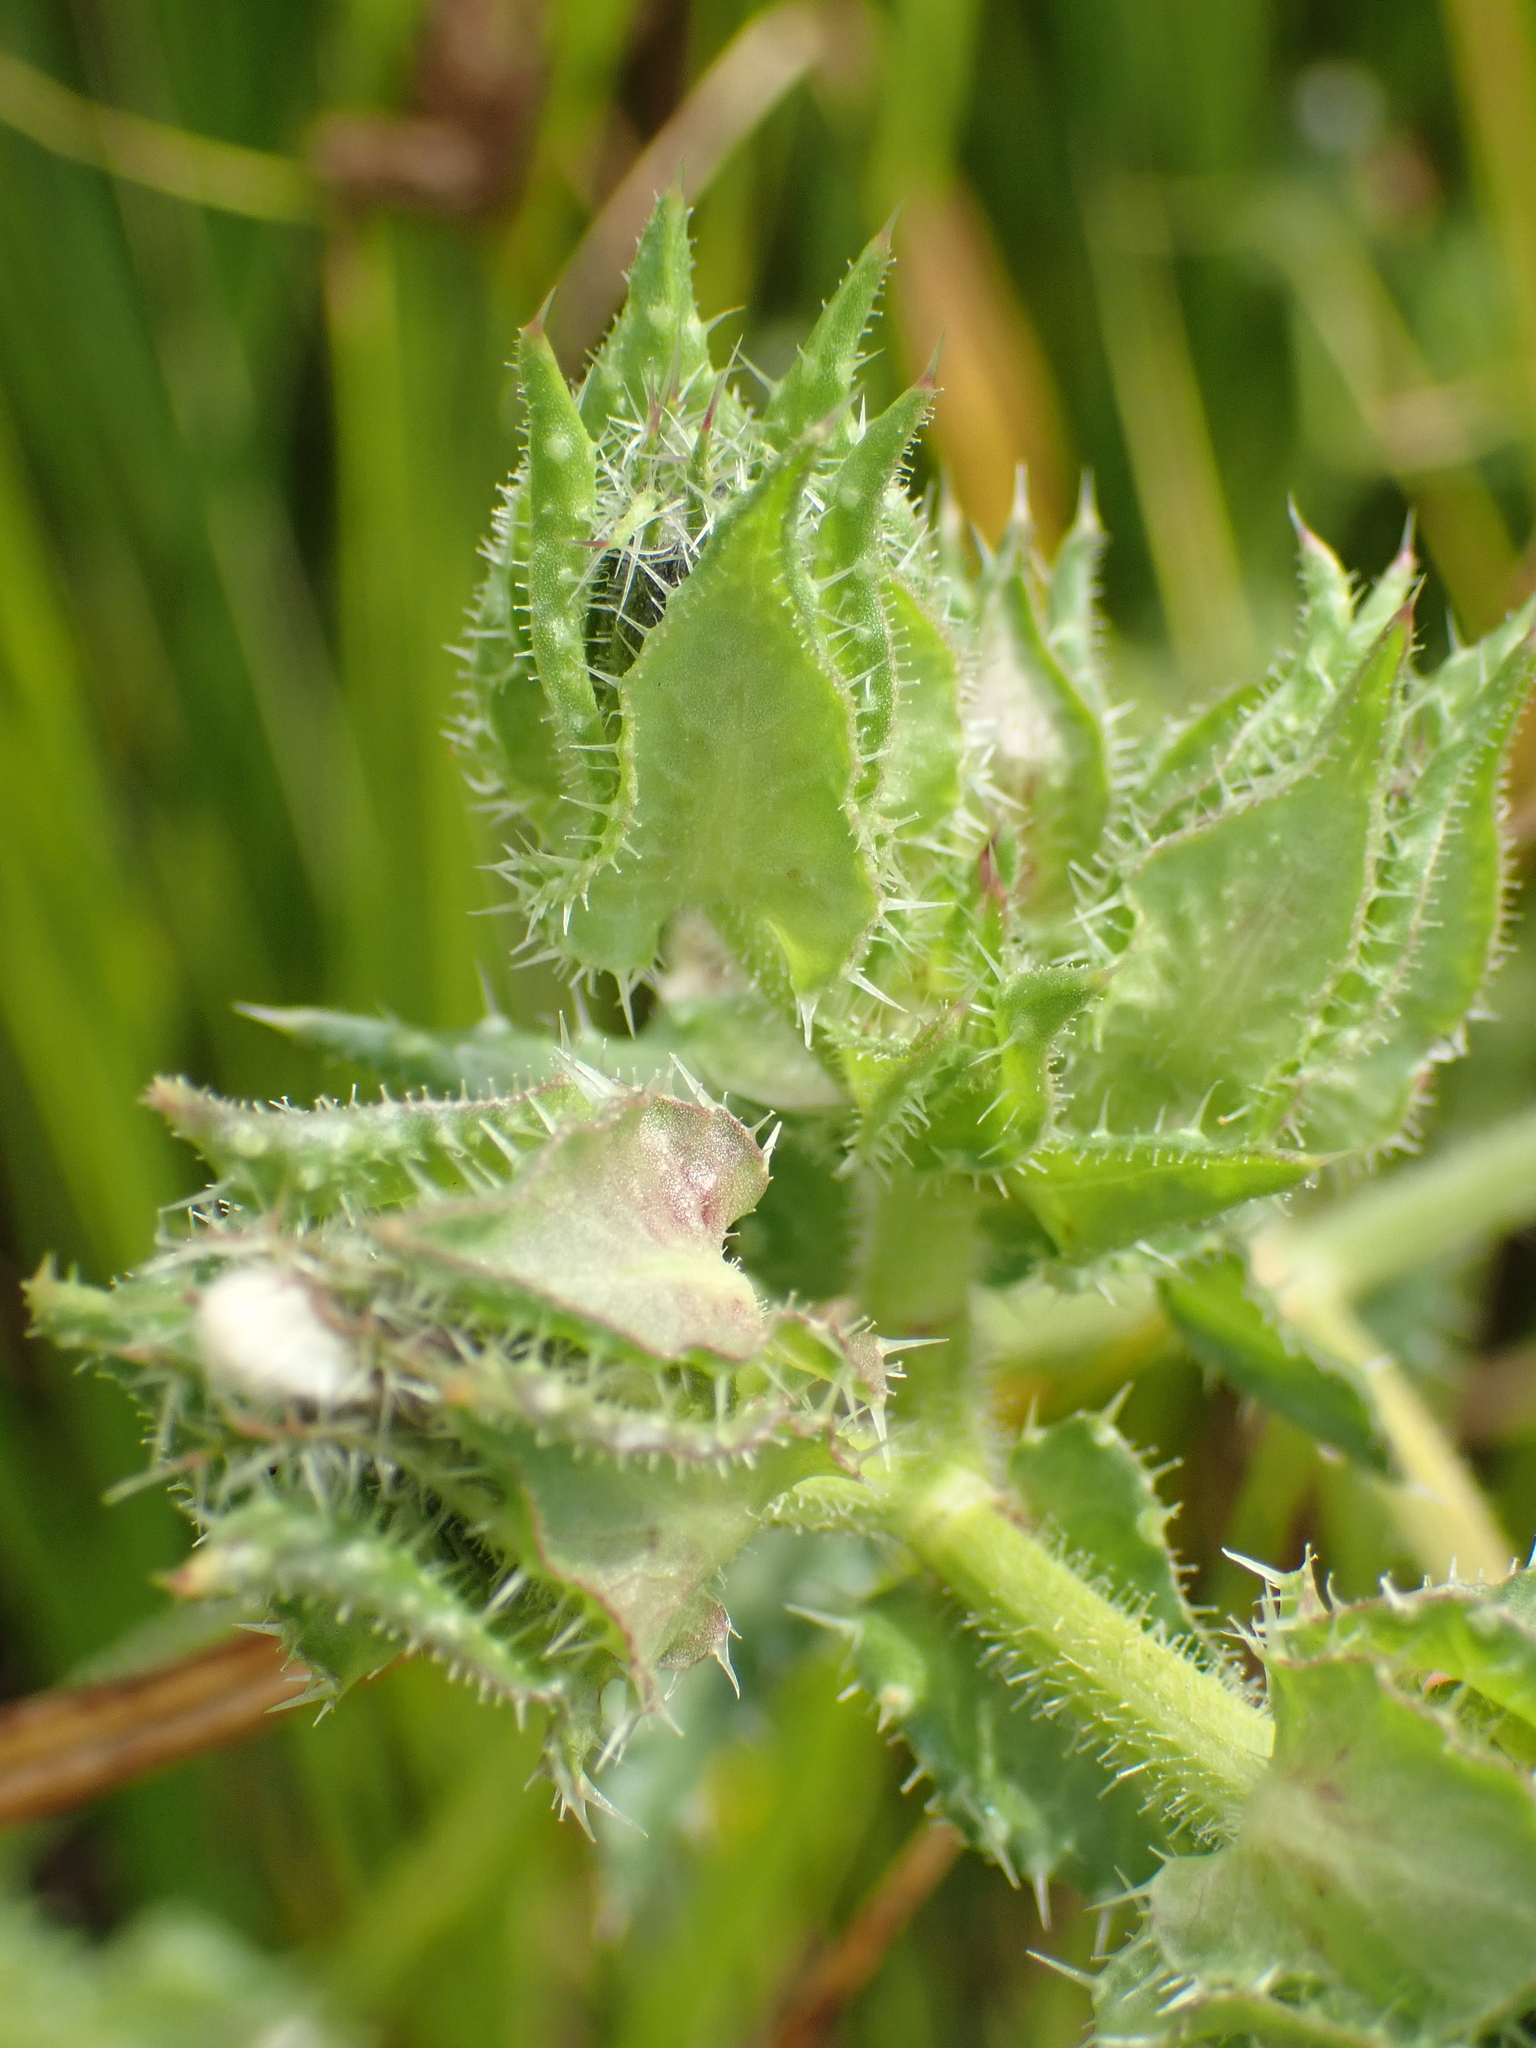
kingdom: Plantae
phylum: Tracheophyta
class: Magnoliopsida
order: Asterales
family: Asteraceae
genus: Helminthotheca
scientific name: Helminthotheca echioides
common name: Ox-tongue
